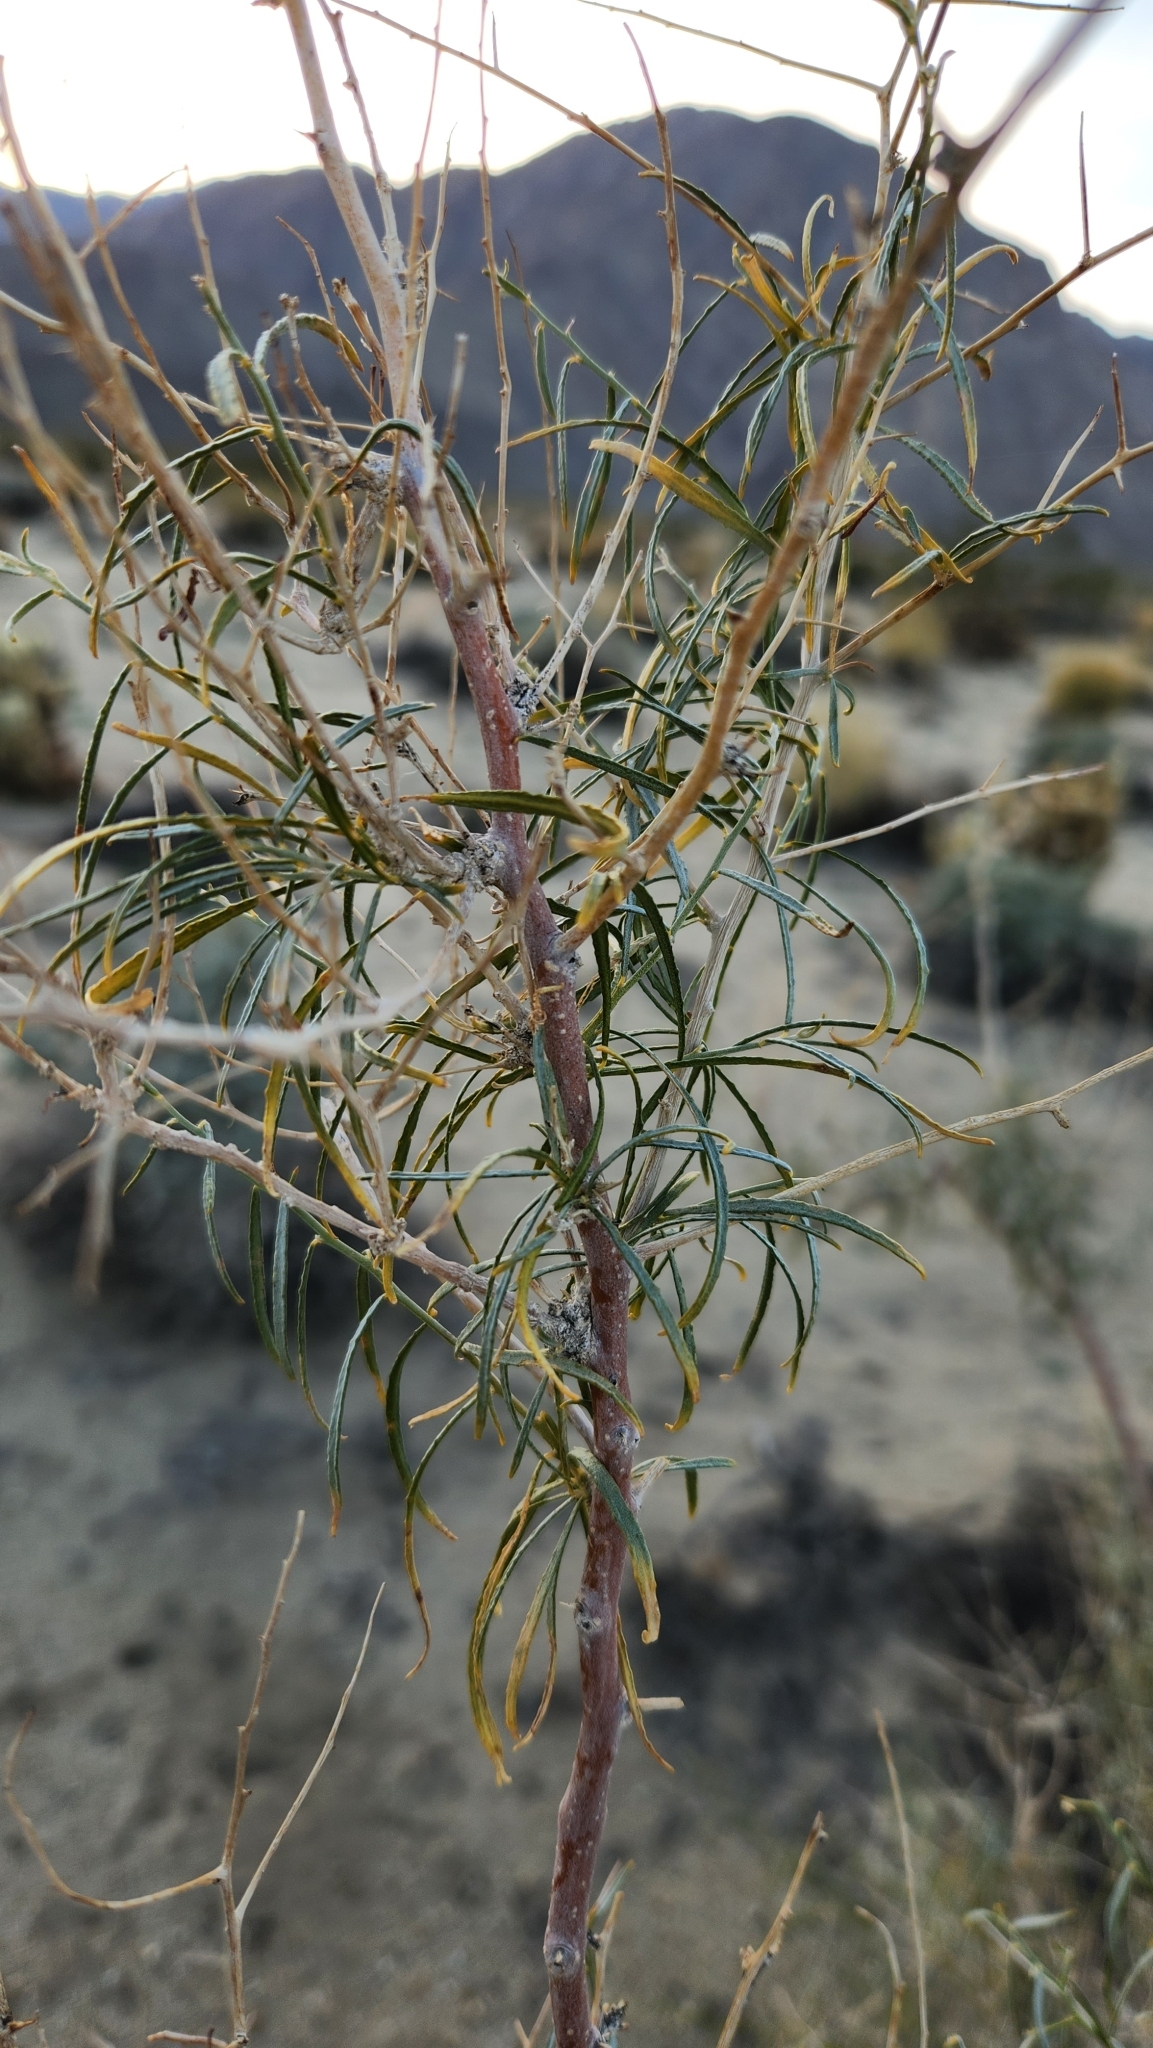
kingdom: Plantae
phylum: Tracheophyta
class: Magnoliopsida
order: Fabales
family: Fabaceae
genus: Psorothamnus
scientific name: Psorothamnus schottii
